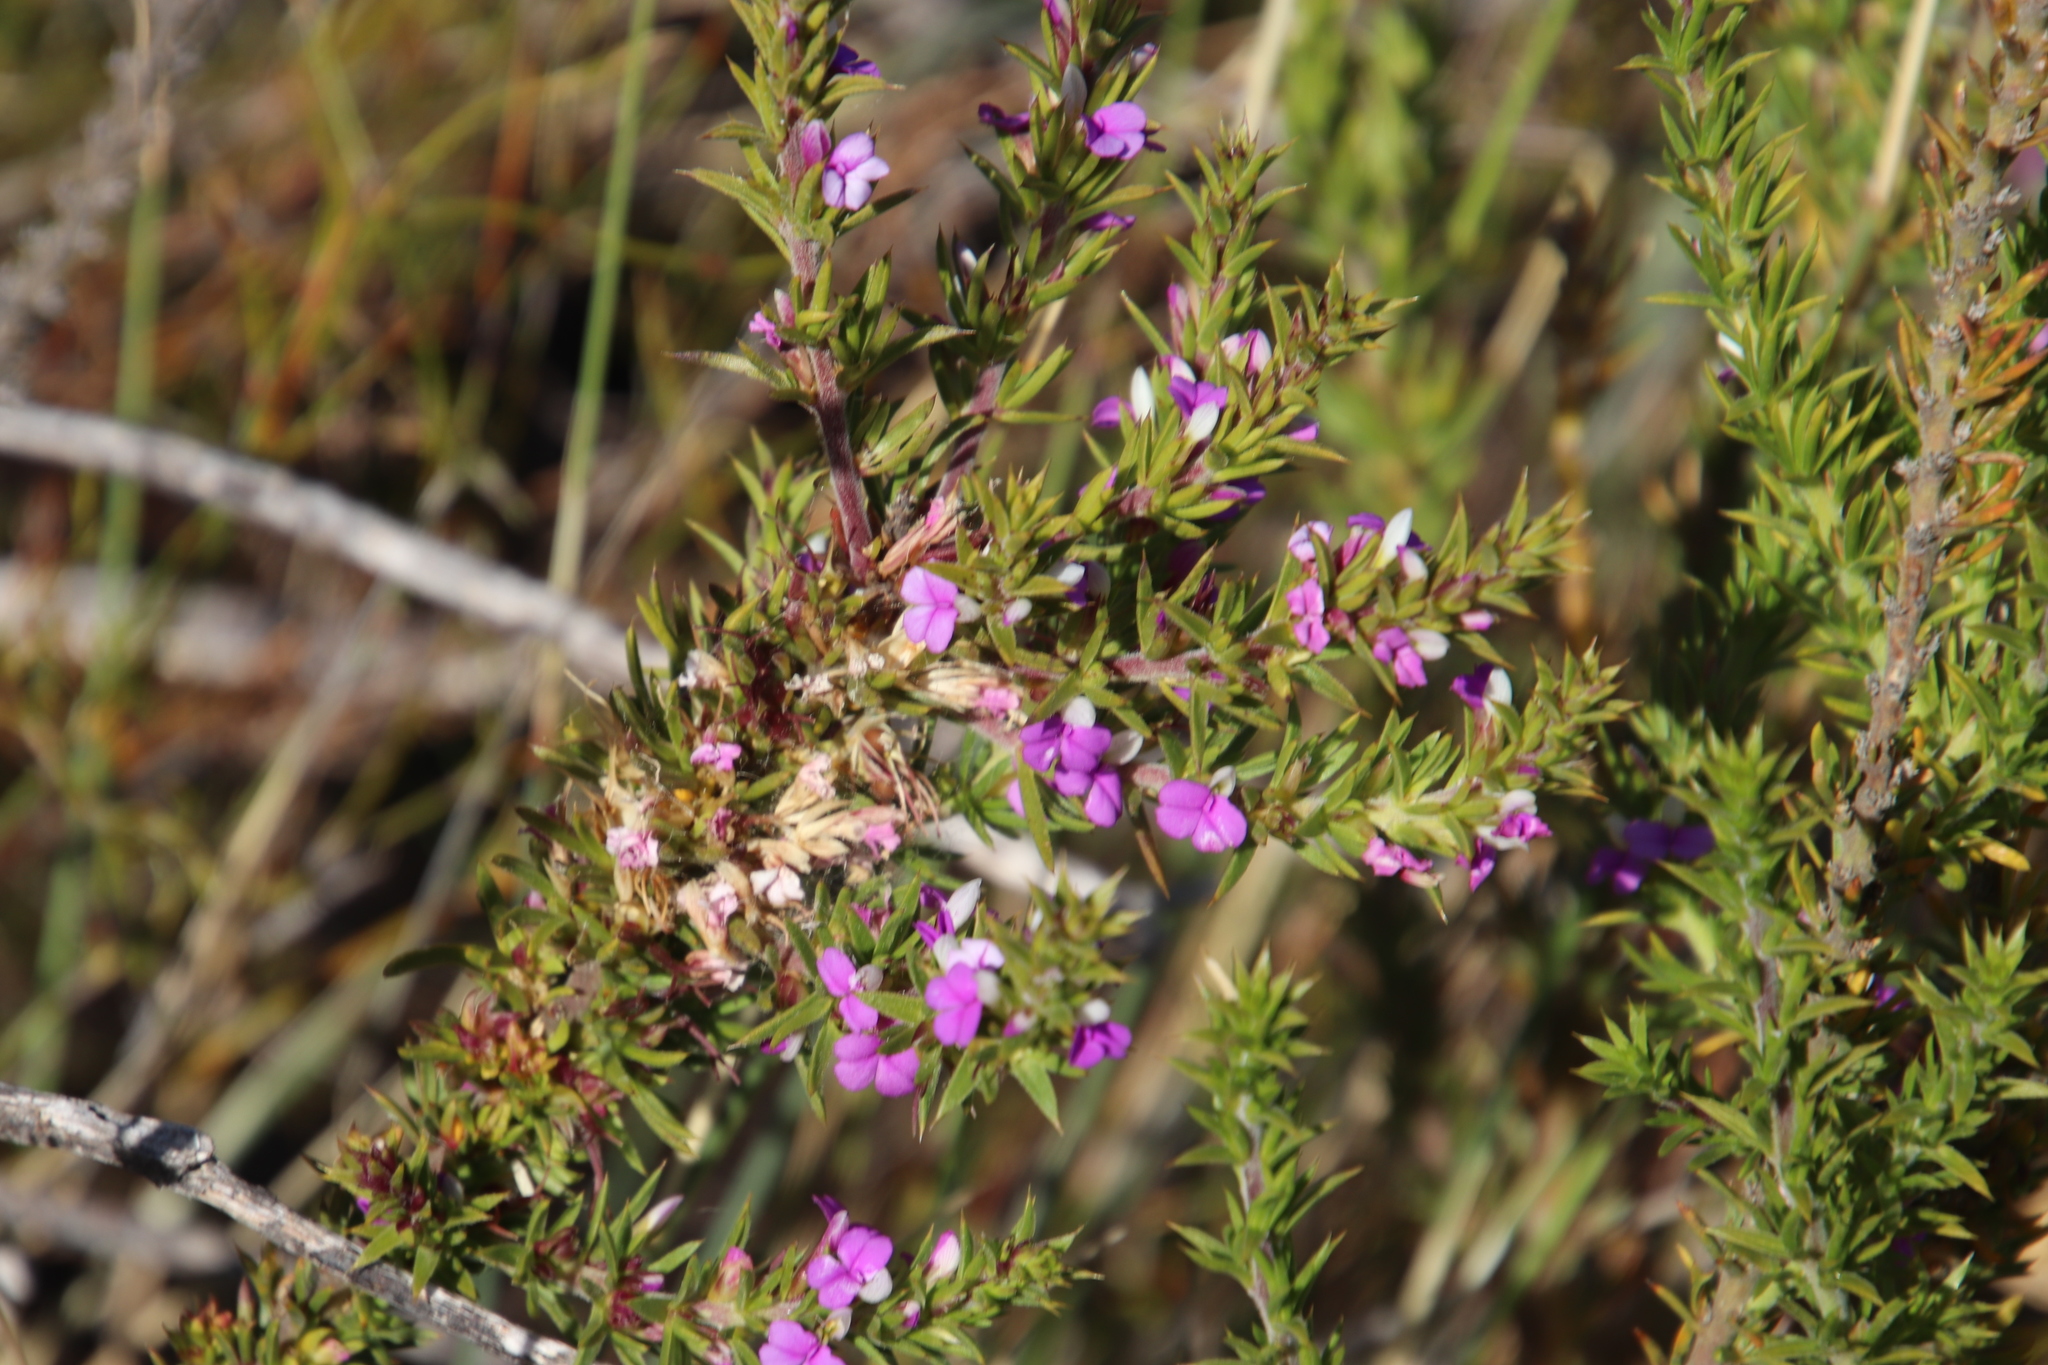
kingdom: Plantae
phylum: Tracheophyta
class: Magnoliopsida
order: Fabales
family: Polygalaceae
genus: Muraltia
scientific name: Muraltia heisteria
